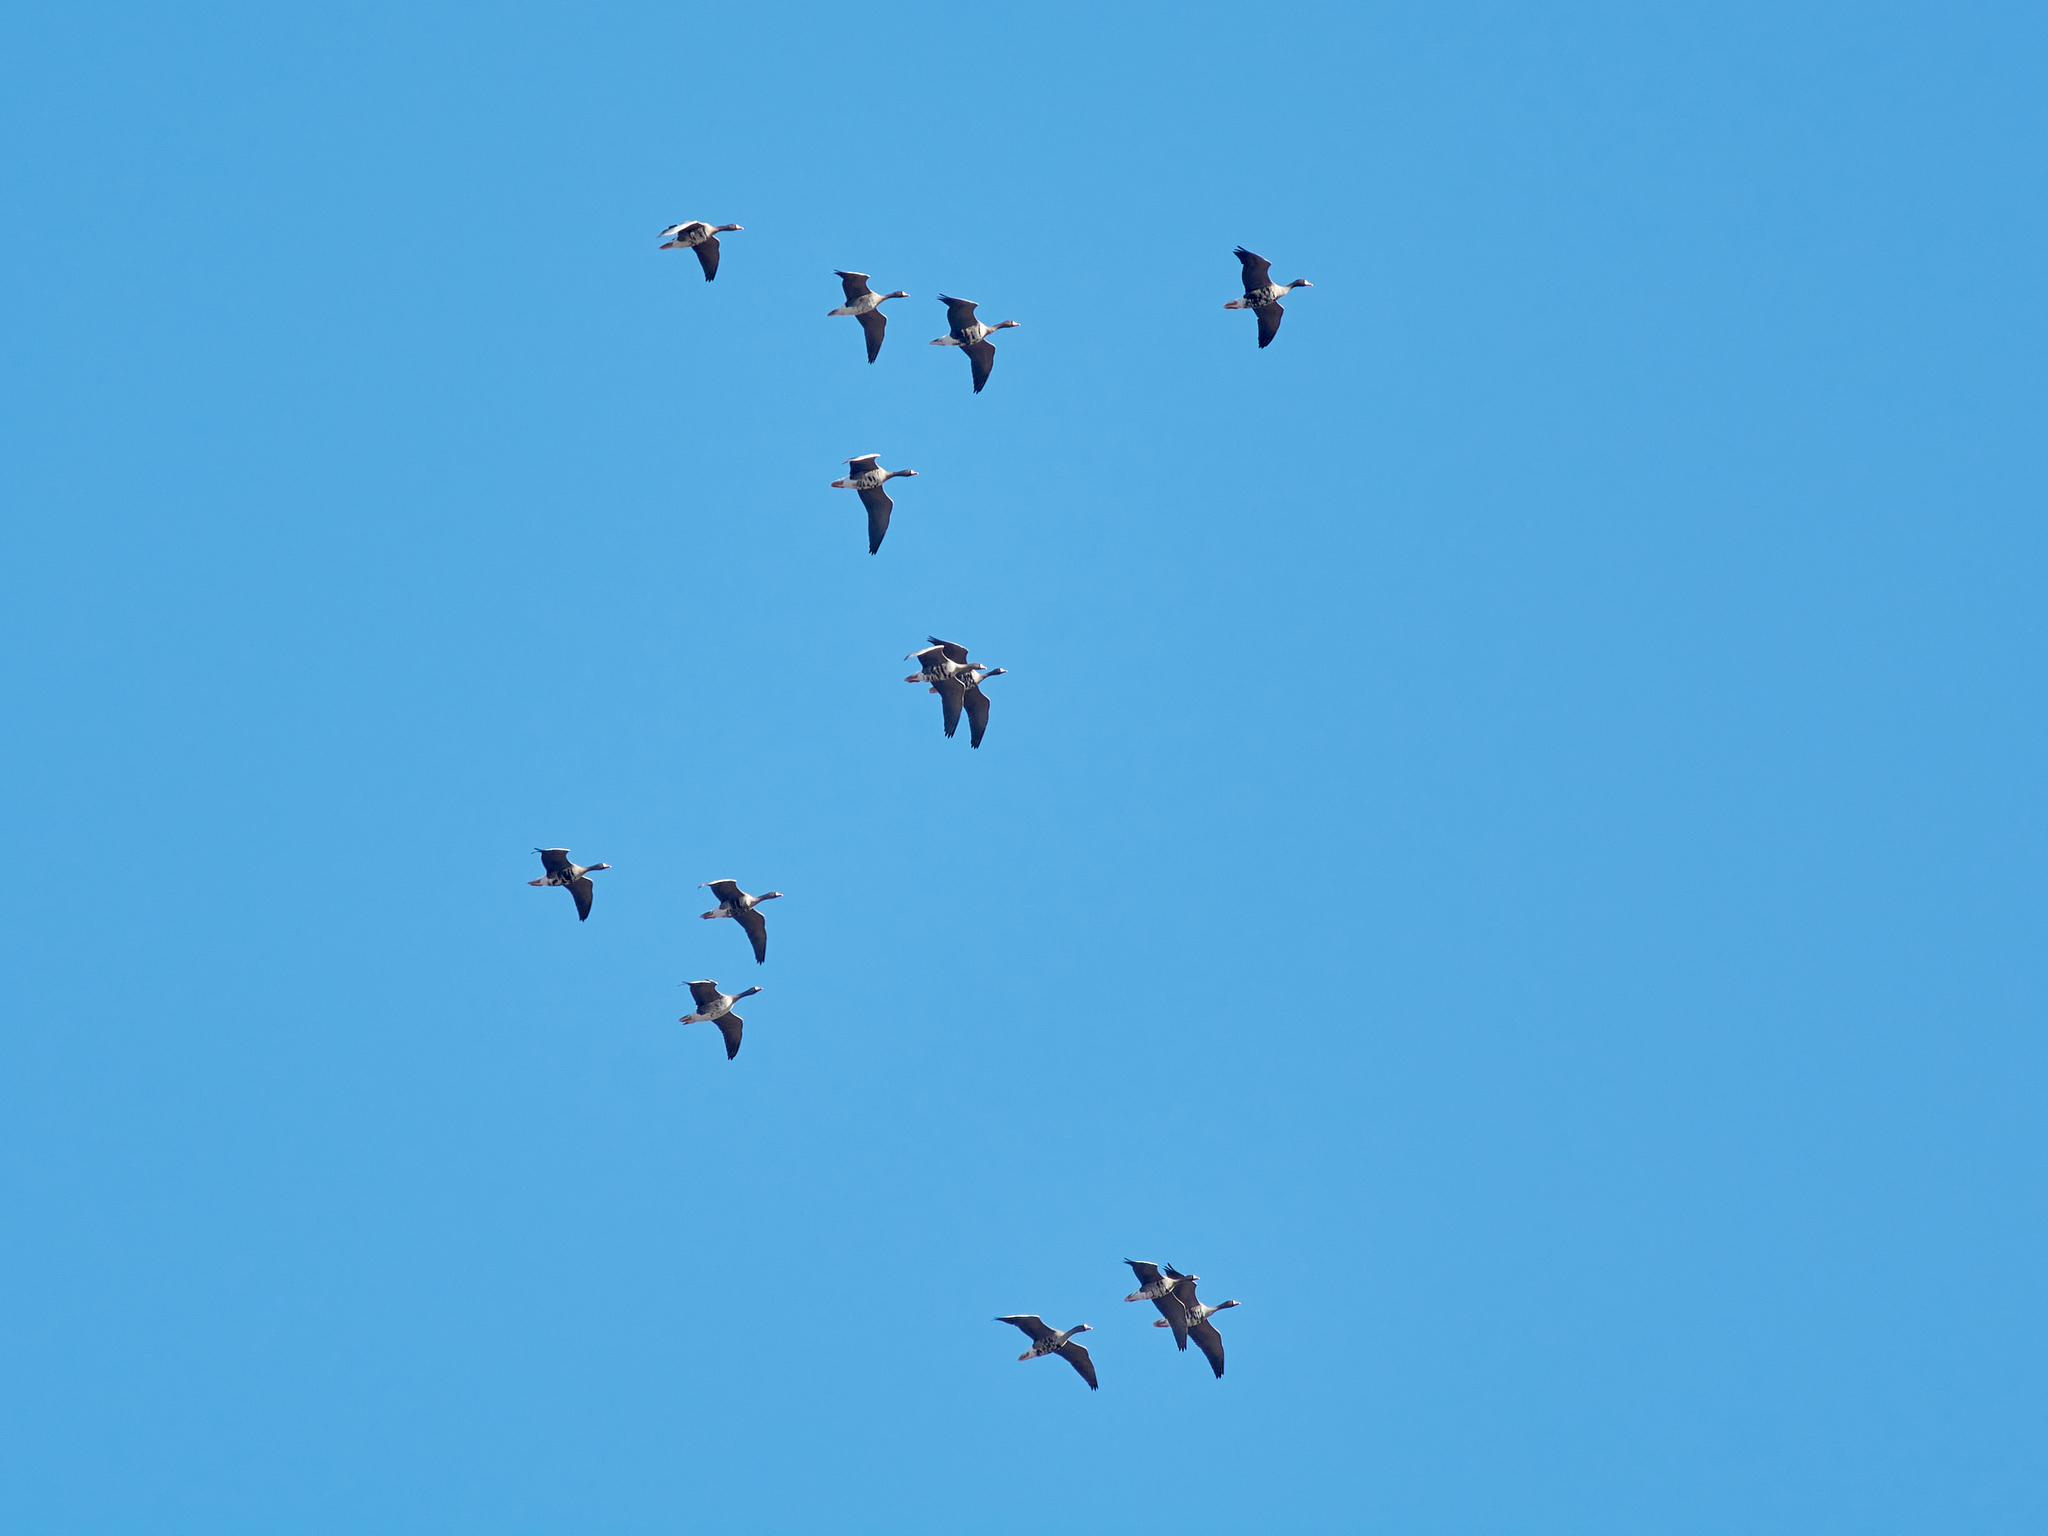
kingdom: Animalia
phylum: Chordata
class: Aves
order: Anseriformes
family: Anatidae
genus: Anser
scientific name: Anser albifrons
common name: Greater white-fronted goose
